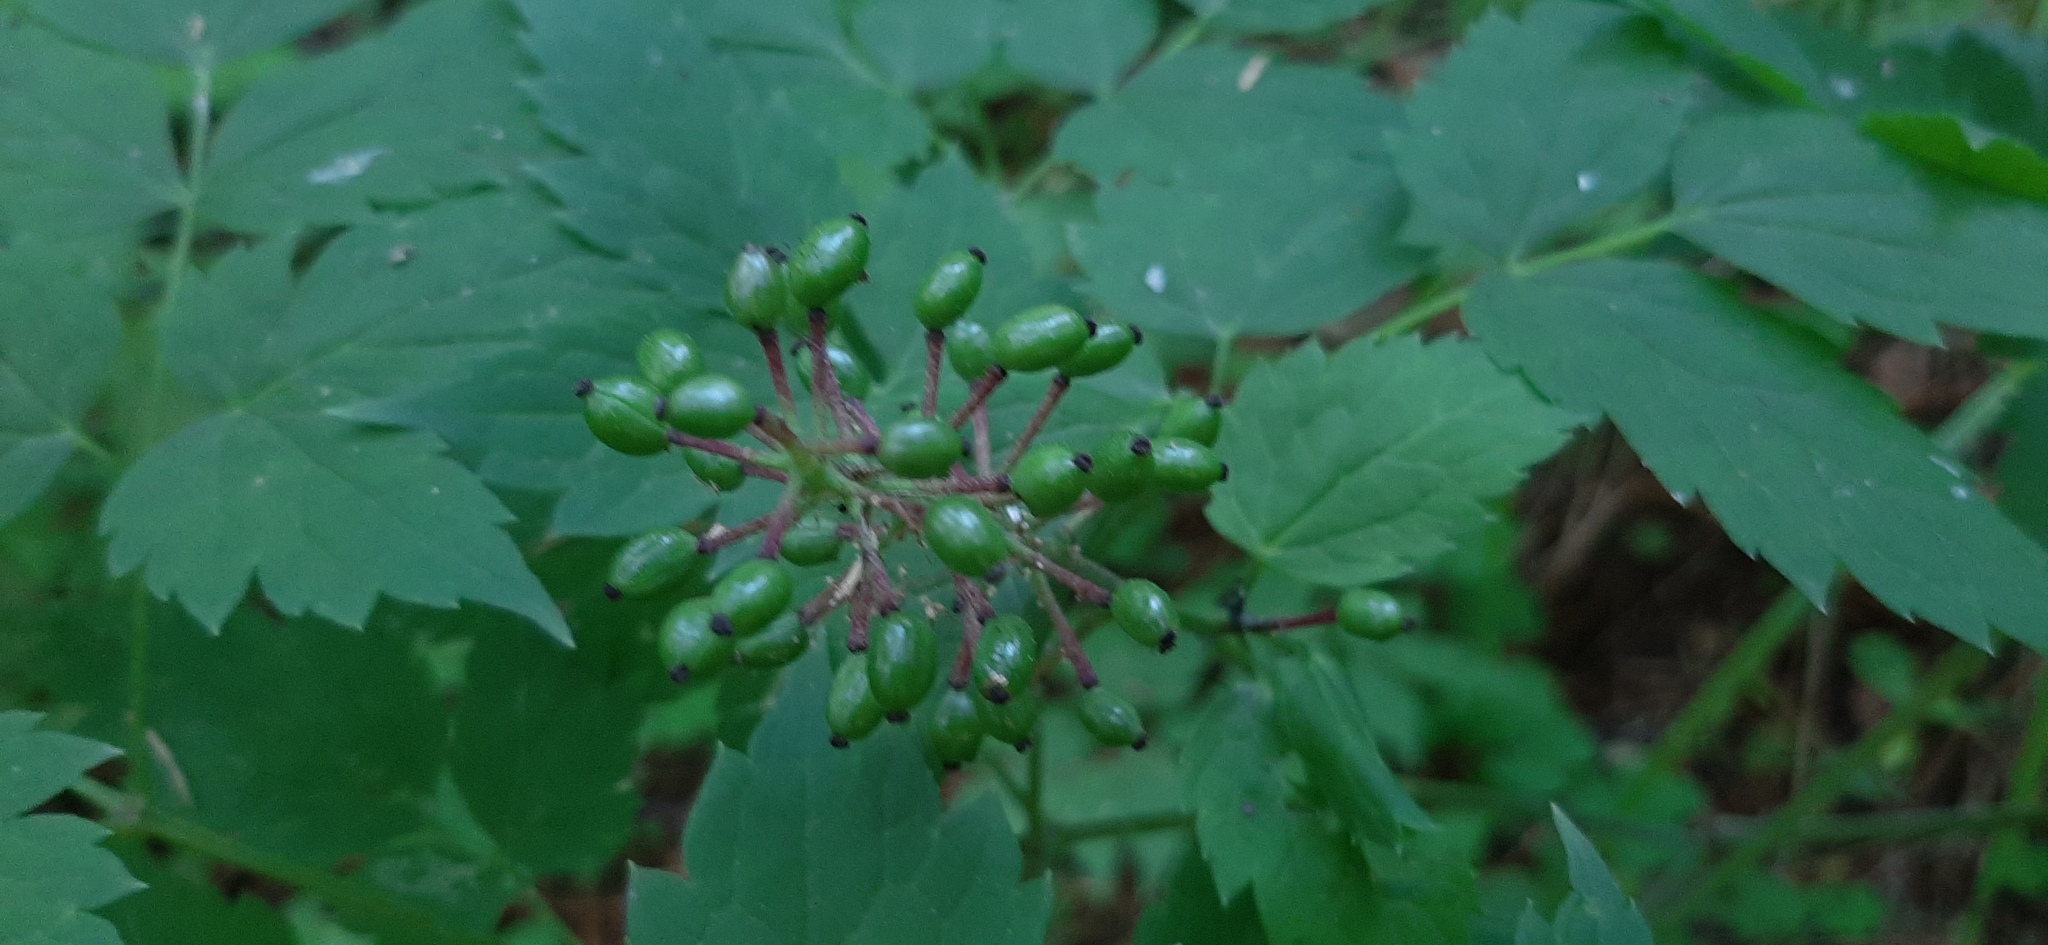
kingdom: Plantae
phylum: Tracheophyta
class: Magnoliopsida
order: Ranunculales
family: Ranunculaceae
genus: Actaea
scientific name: Actaea erythrocarpa
